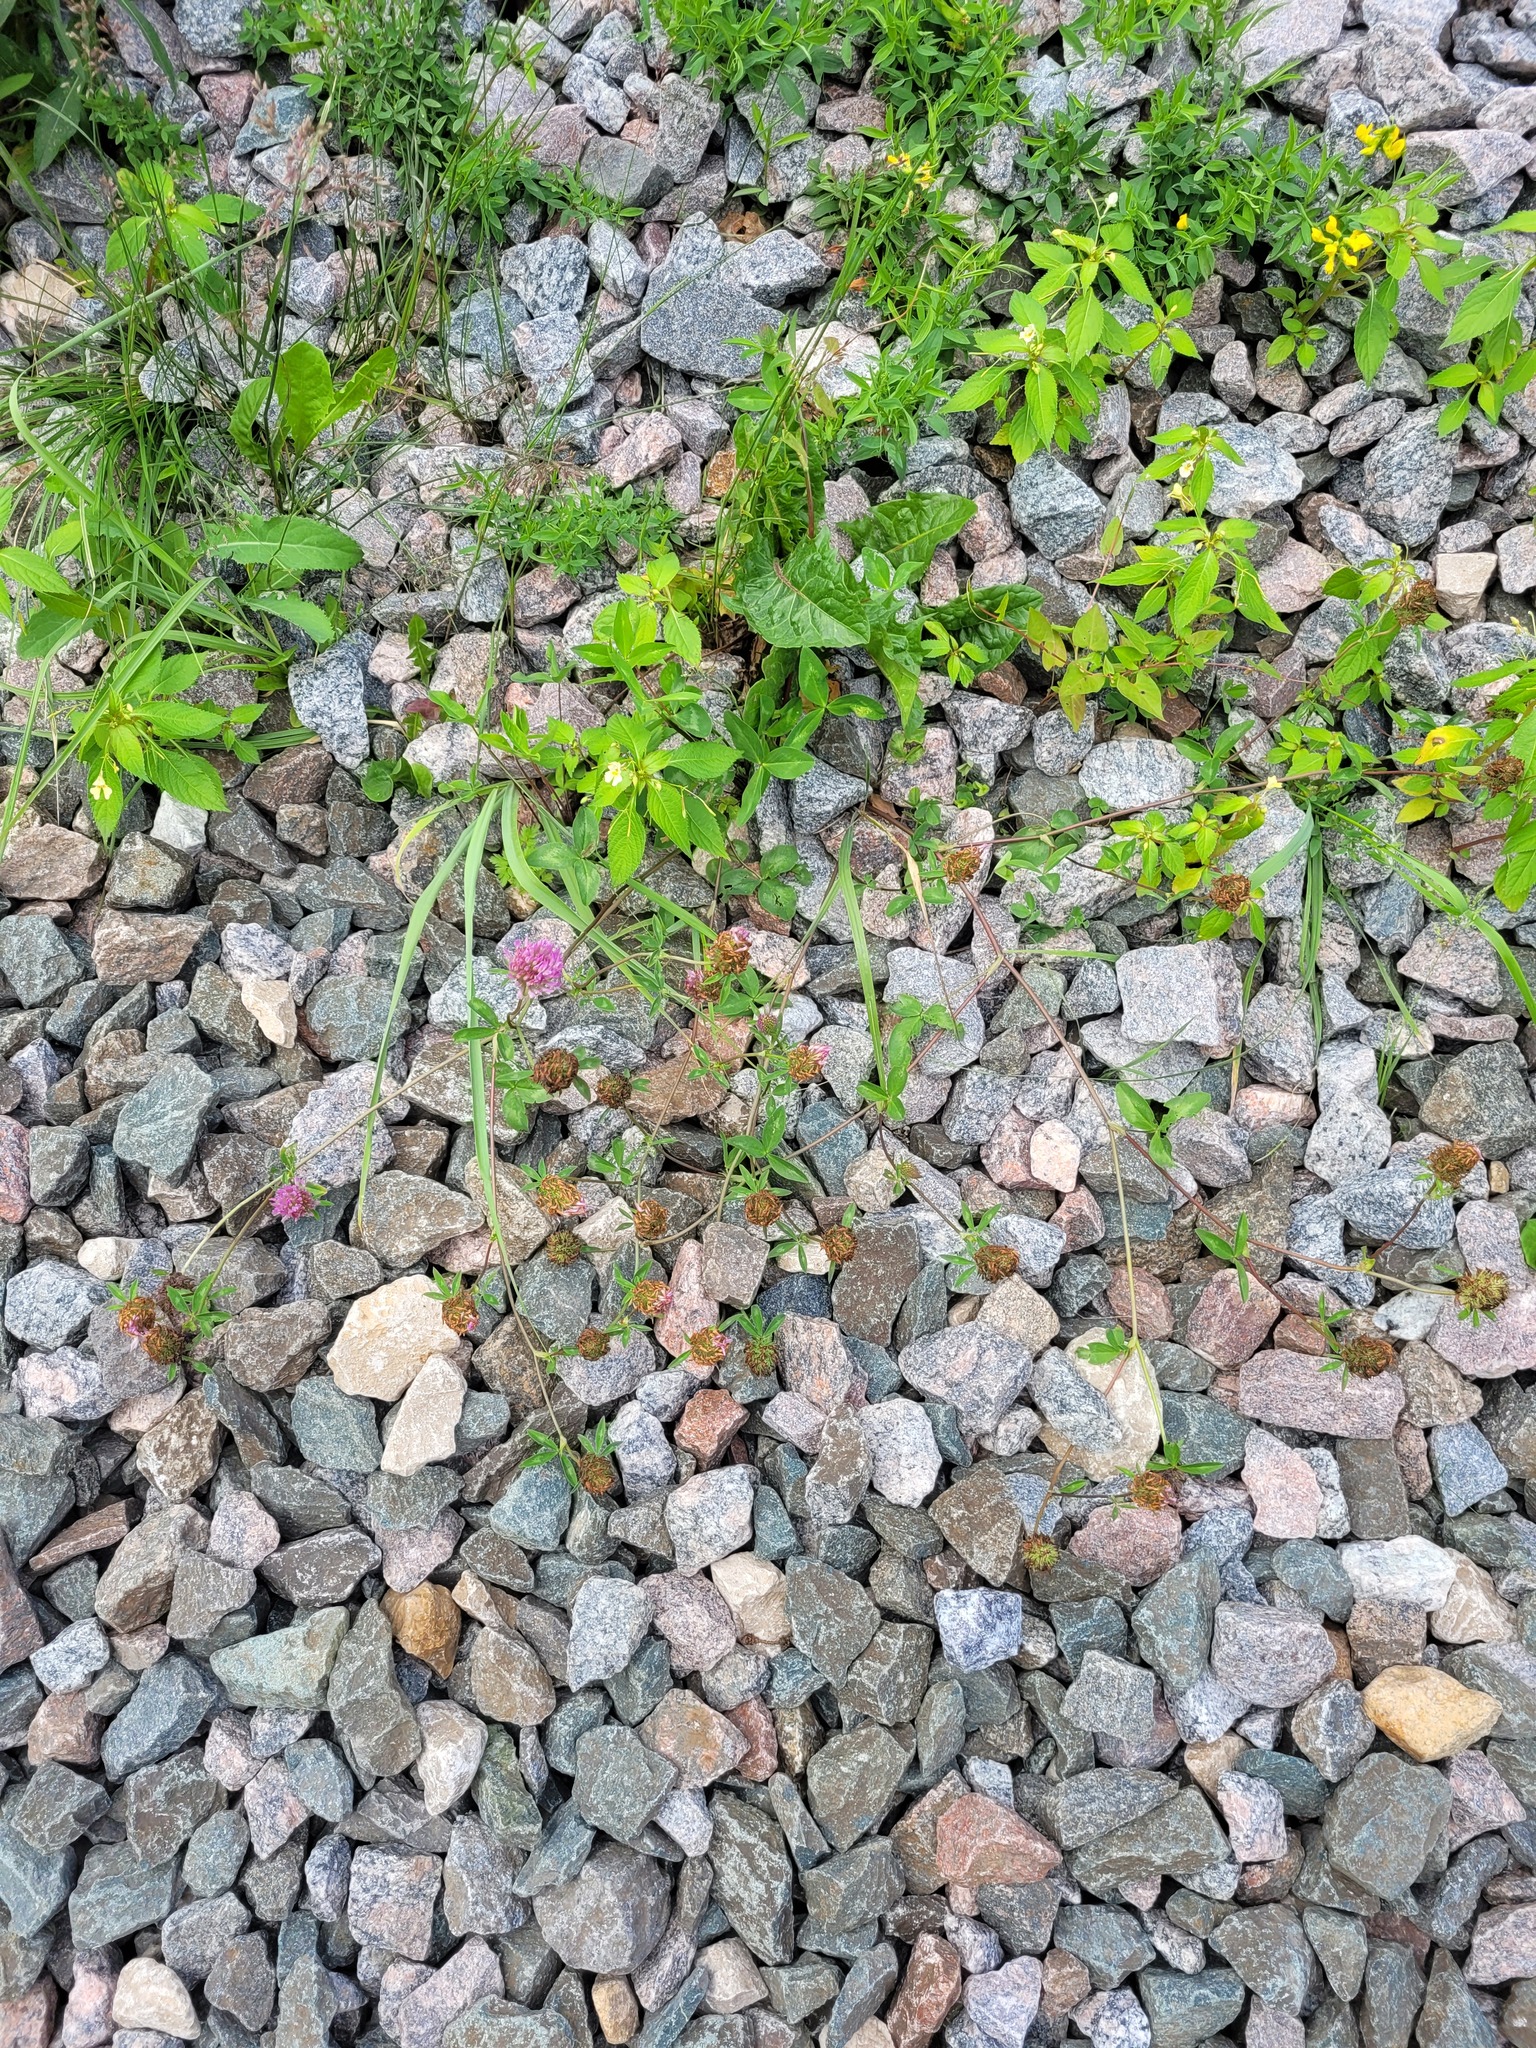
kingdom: Plantae
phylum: Tracheophyta
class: Magnoliopsida
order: Fabales
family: Fabaceae
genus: Trifolium
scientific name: Trifolium pratense
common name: Red clover
